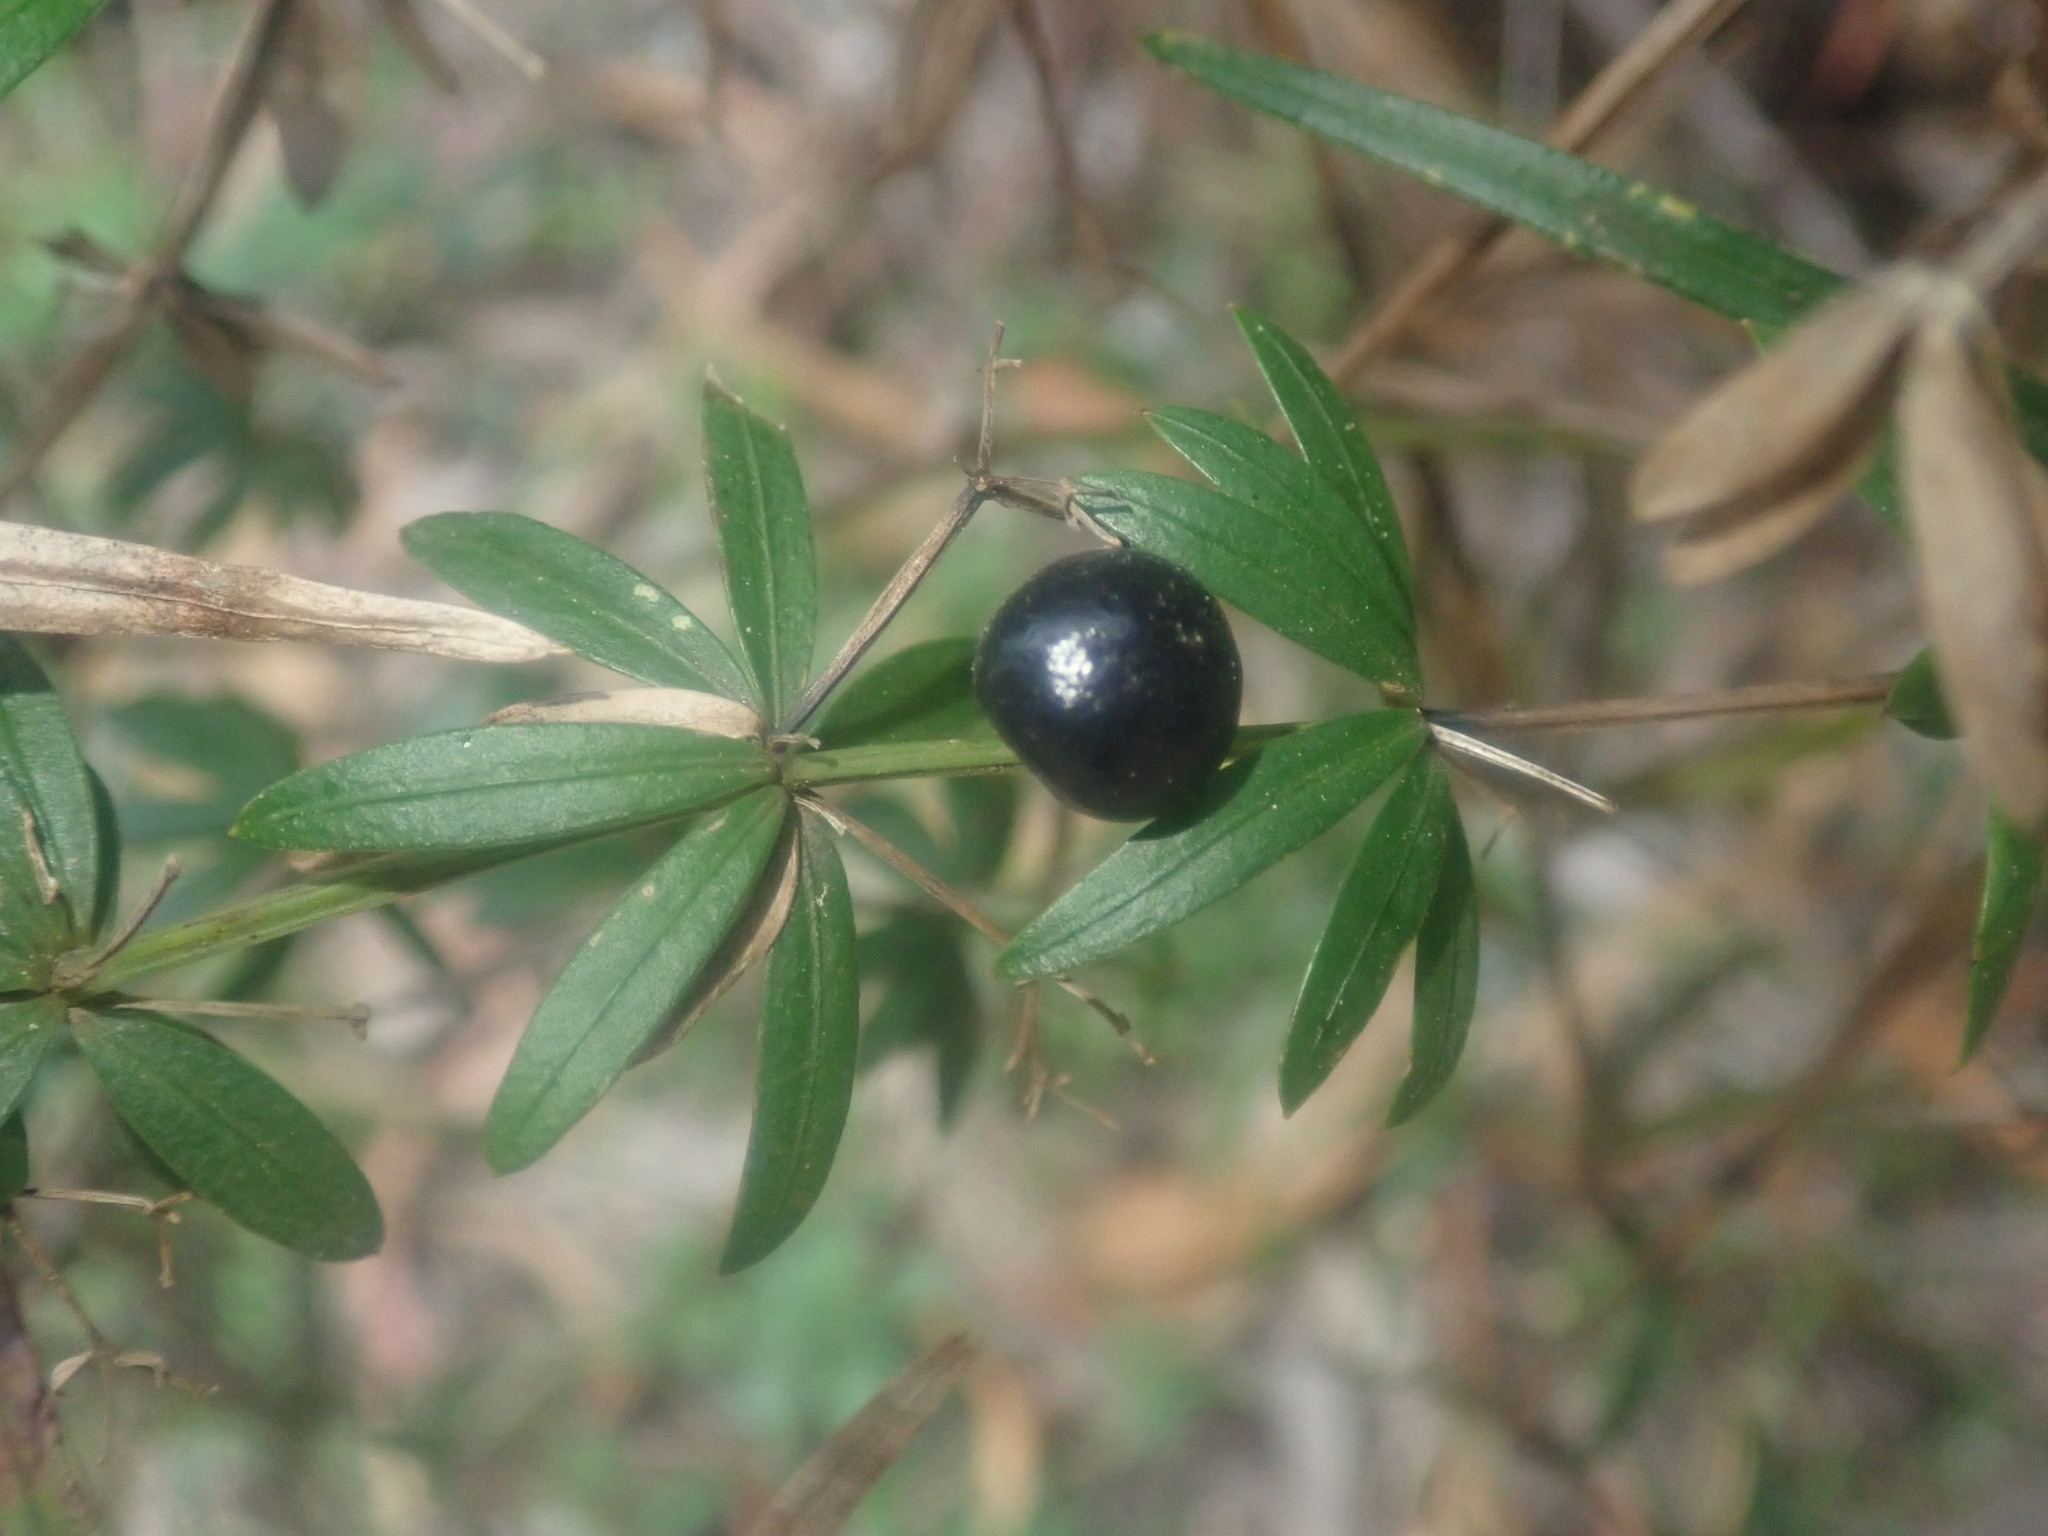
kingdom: Plantae
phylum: Tracheophyta
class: Magnoliopsida
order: Gentianales
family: Rubiaceae
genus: Rubia
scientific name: Rubia occidens
